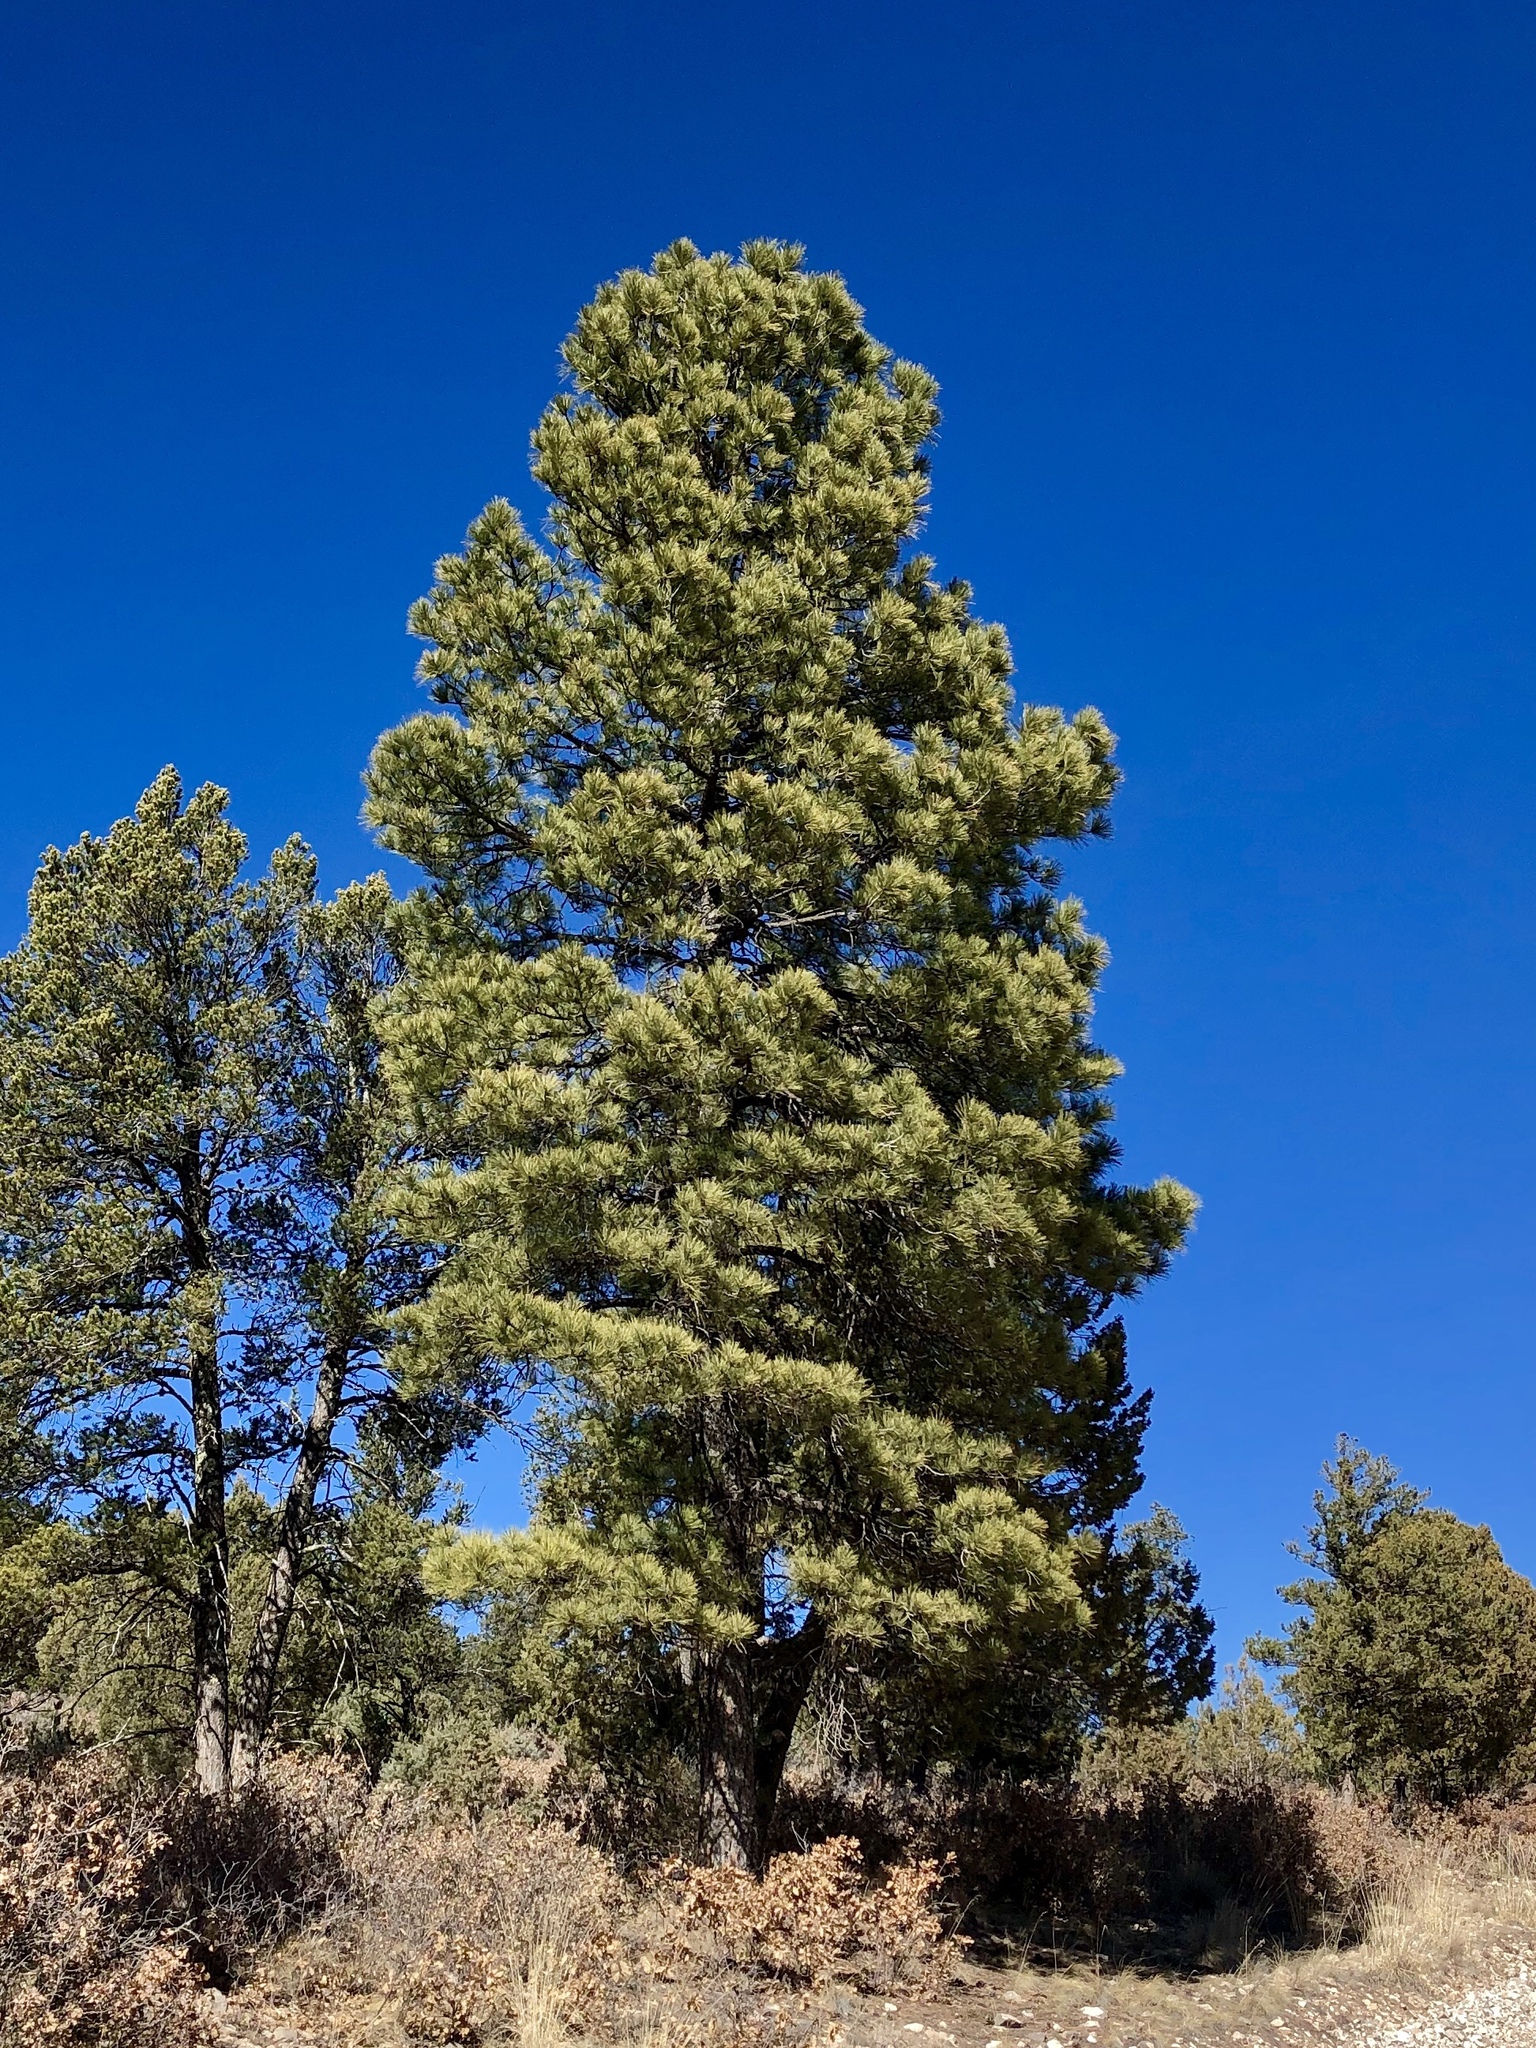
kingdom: Plantae
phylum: Tracheophyta
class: Pinopsida
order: Pinales
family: Pinaceae
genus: Pinus
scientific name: Pinus ponderosa
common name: Western yellow-pine
